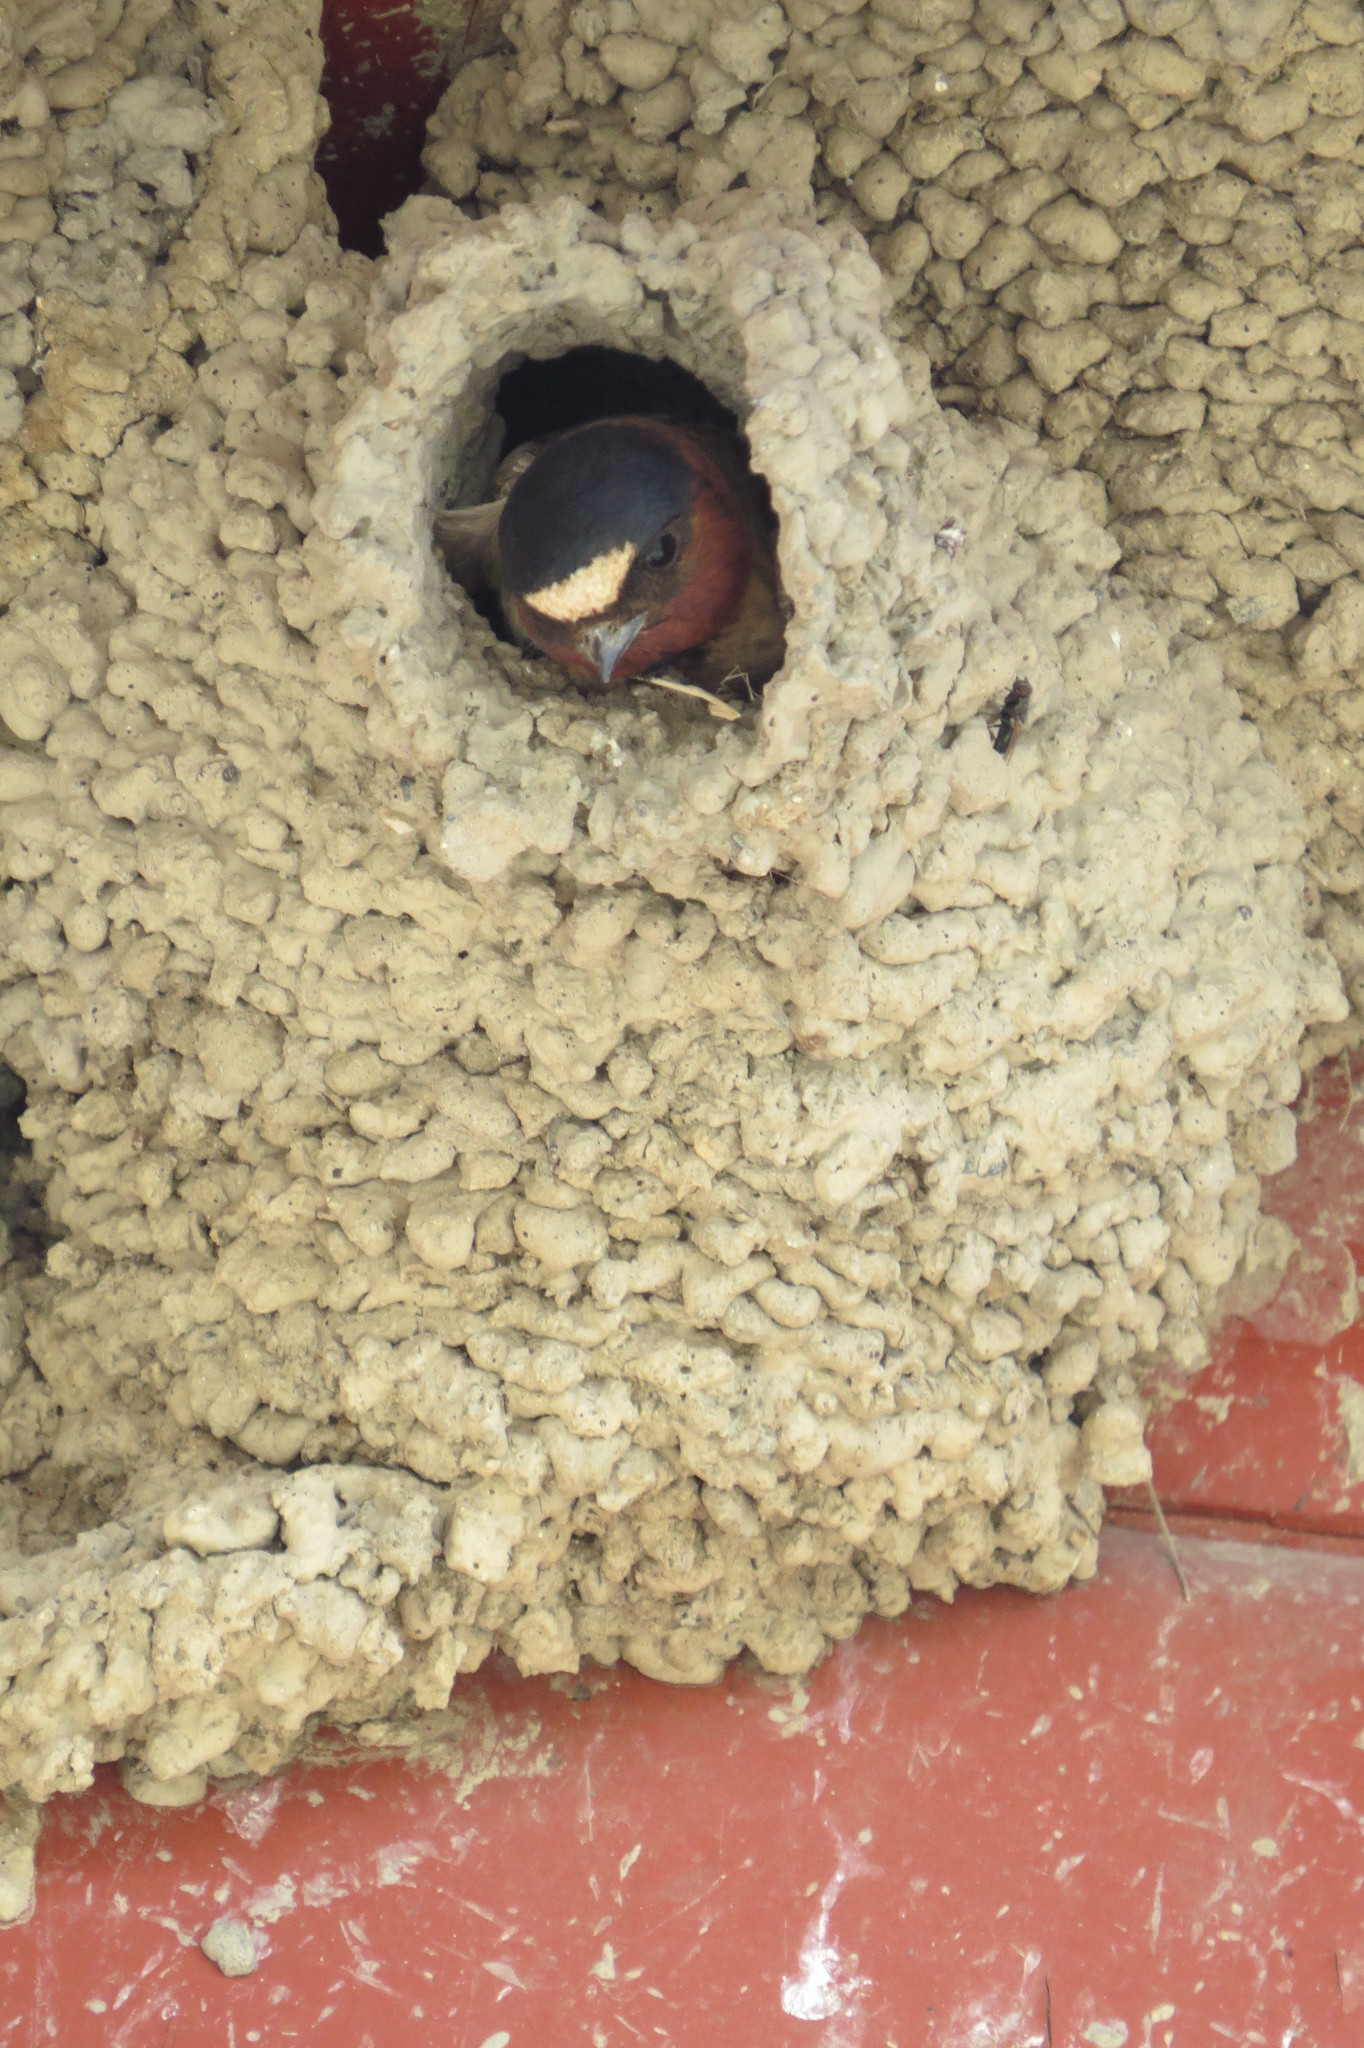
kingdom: Animalia
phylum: Chordata
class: Aves
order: Passeriformes
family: Hirundinidae
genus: Petrochelidon
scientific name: Petrochelidon pyrrhonota
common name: American cliff swallow
